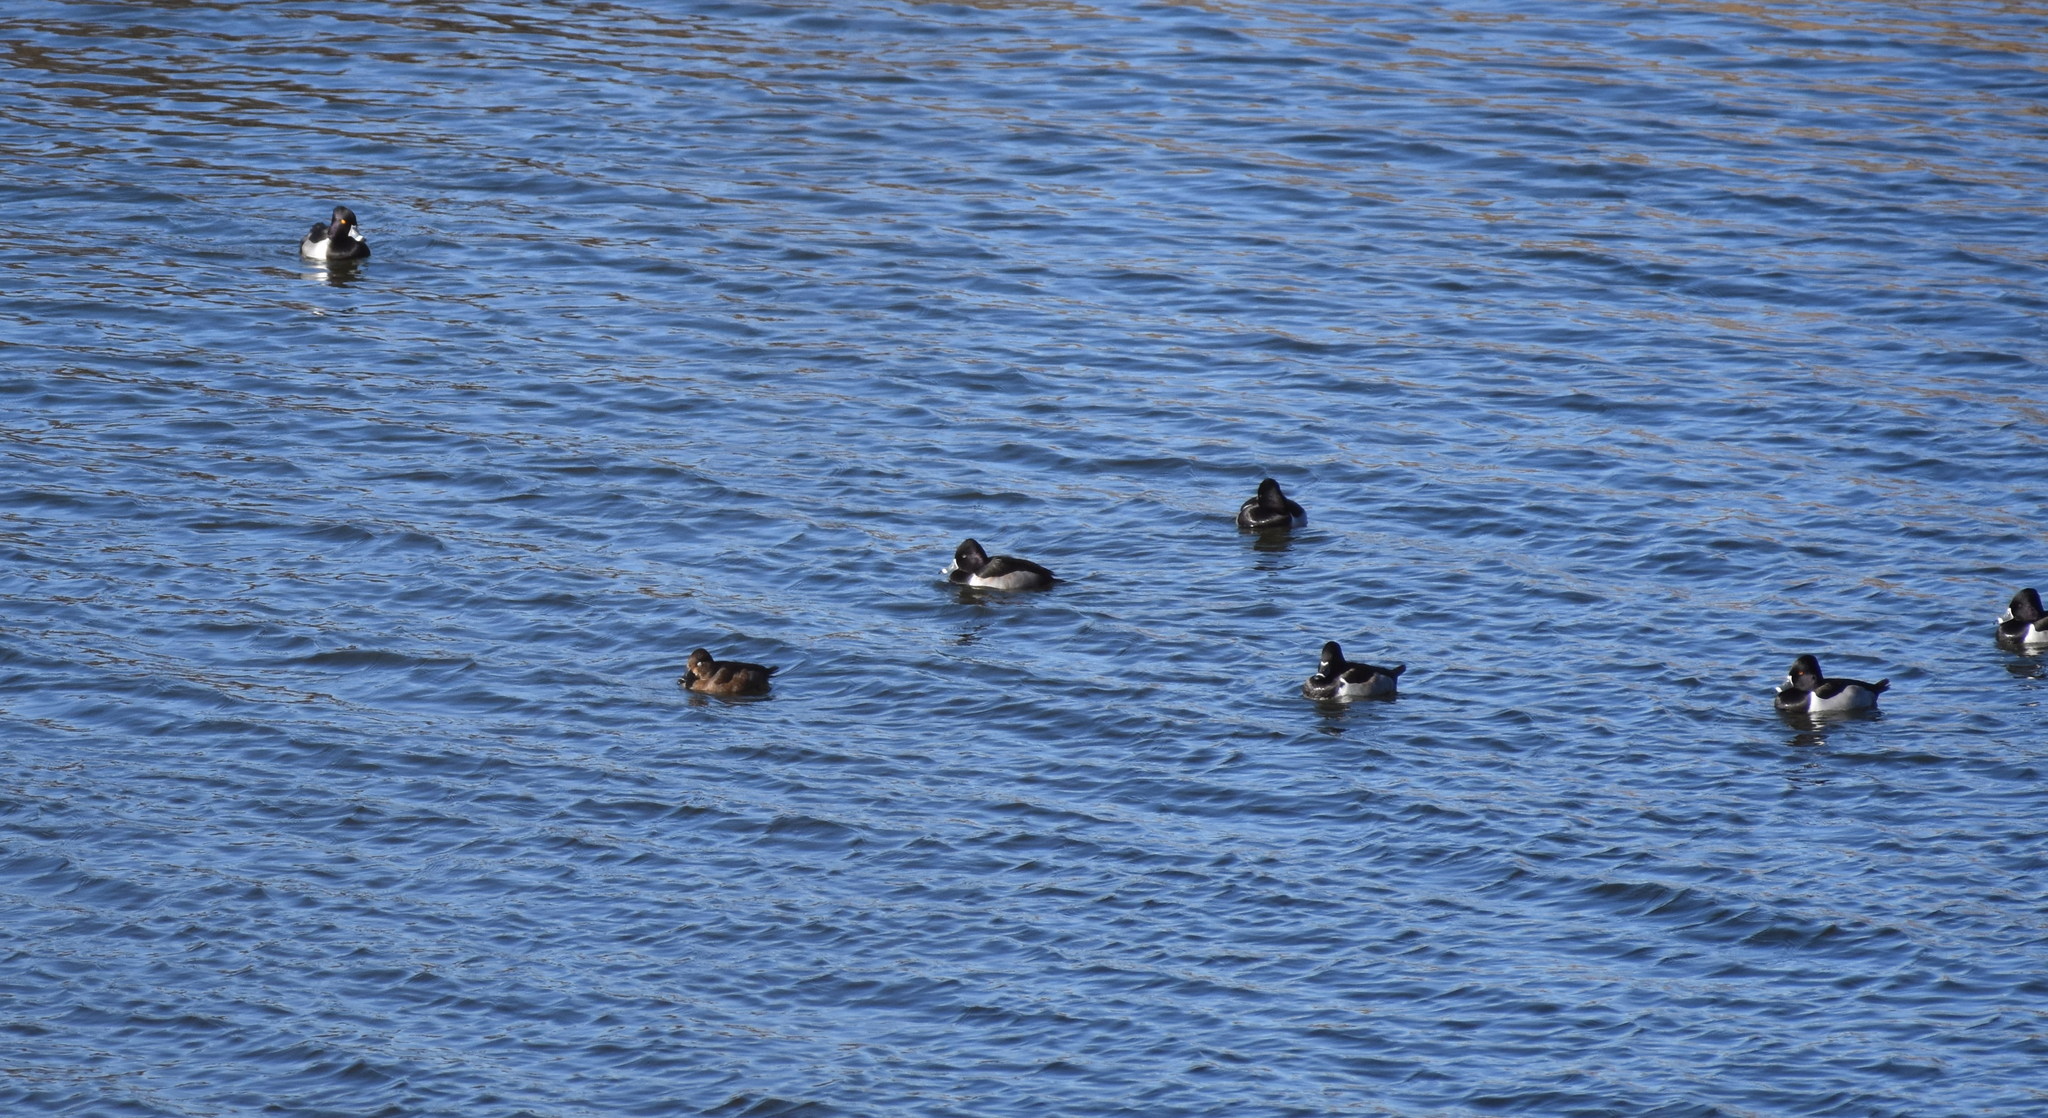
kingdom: Animalia
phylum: Chordata
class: Aves
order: Anseriformes
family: Anatidae
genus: Aythya
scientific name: Aythya collaris
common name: Ring-necked duck
